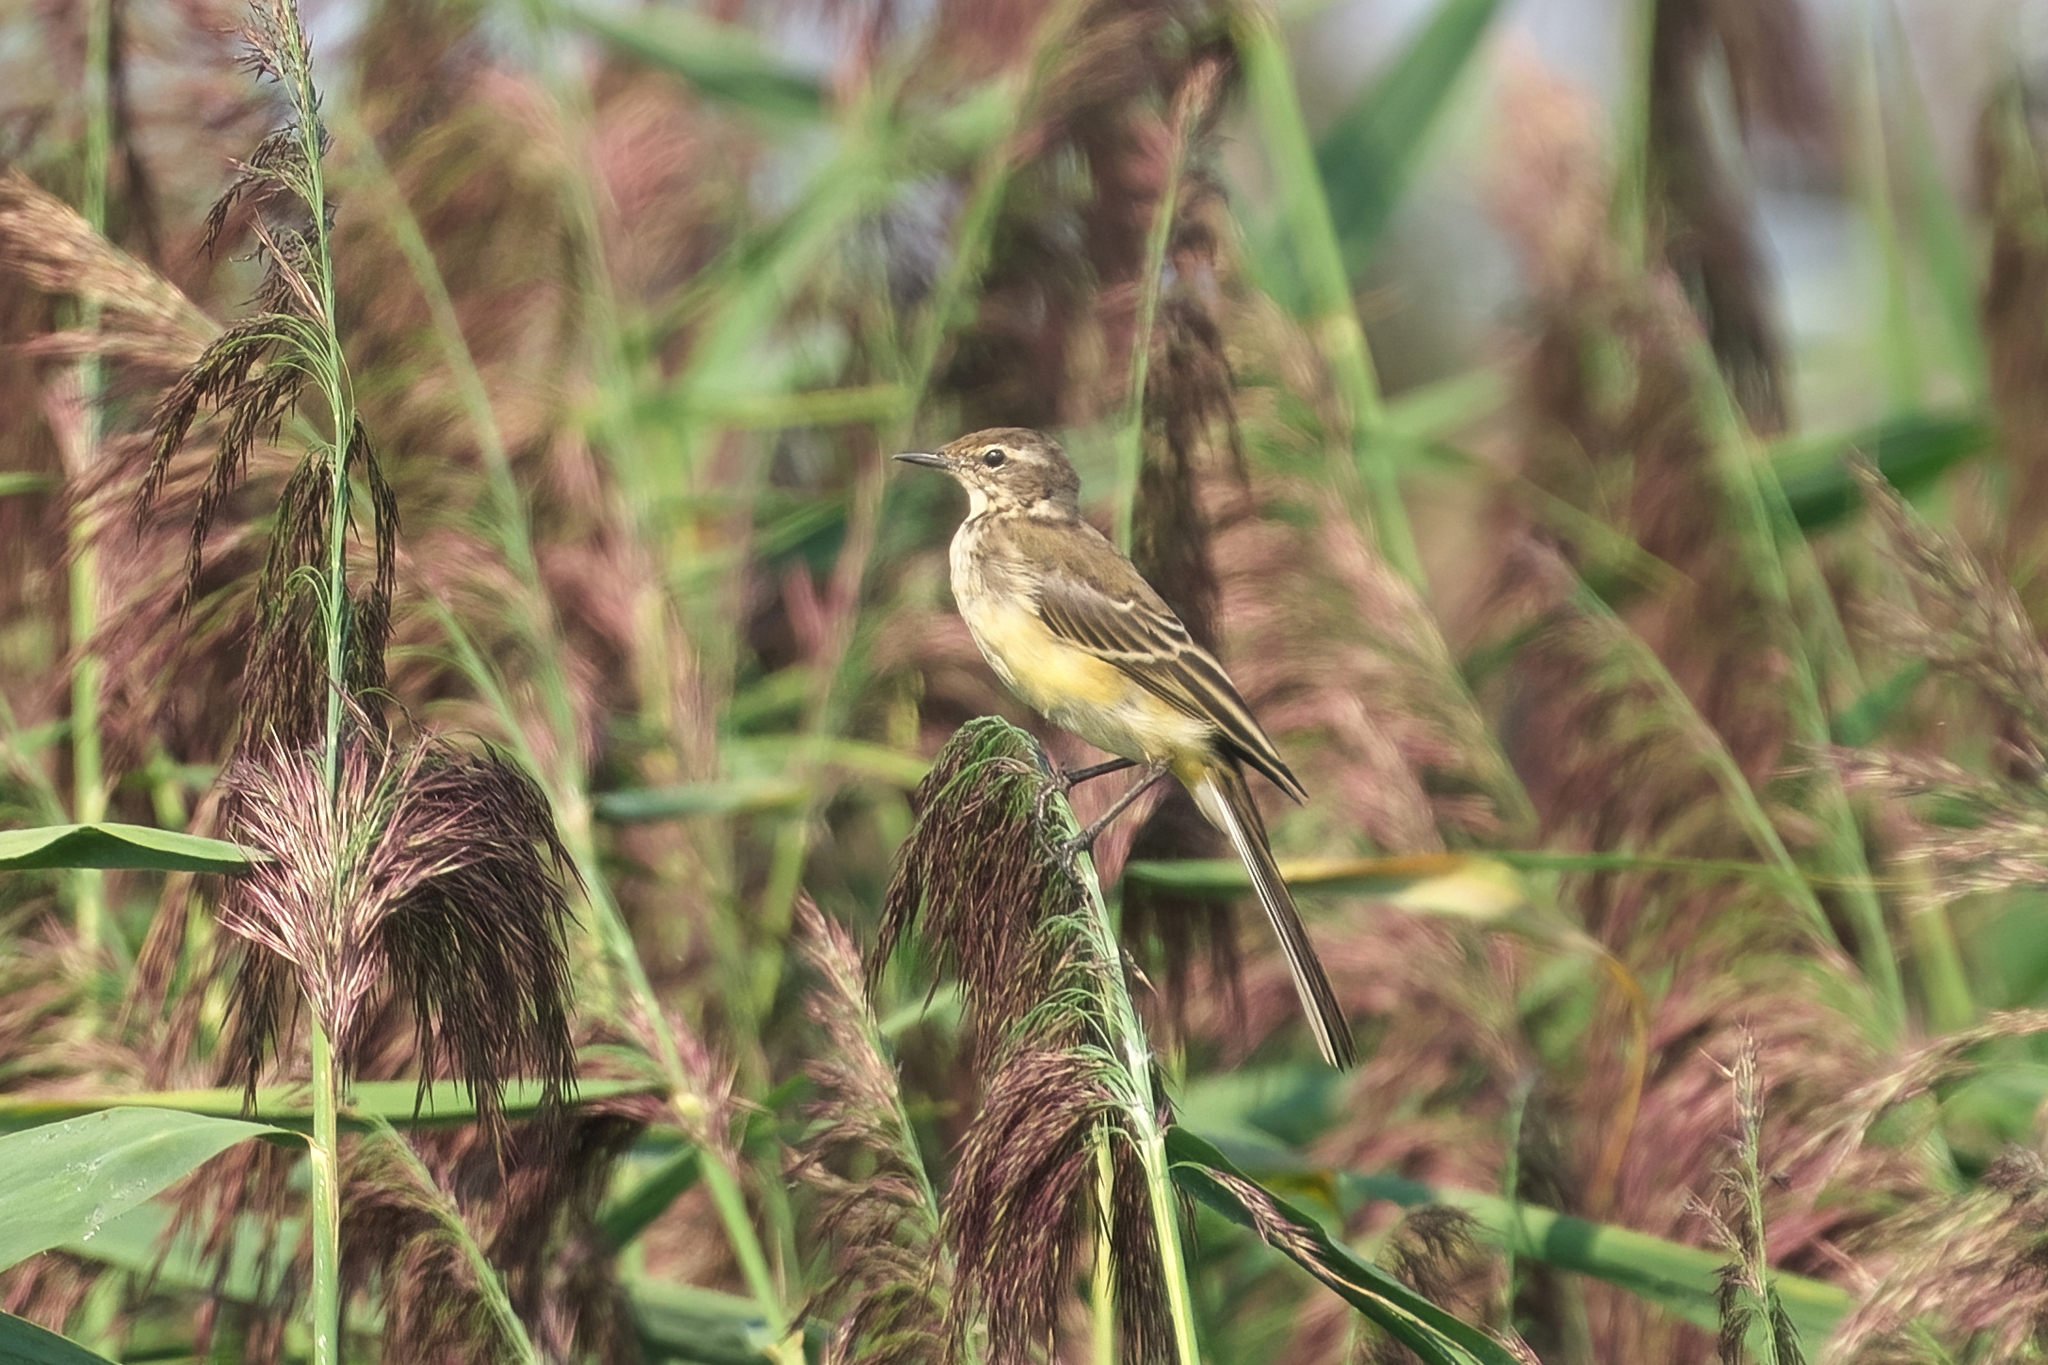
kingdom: Animalia
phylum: Chordata
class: Aves
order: Passeriformes
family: Motacillidae
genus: Motacilla
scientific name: Motacilla flava
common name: Western yellow wagtail
